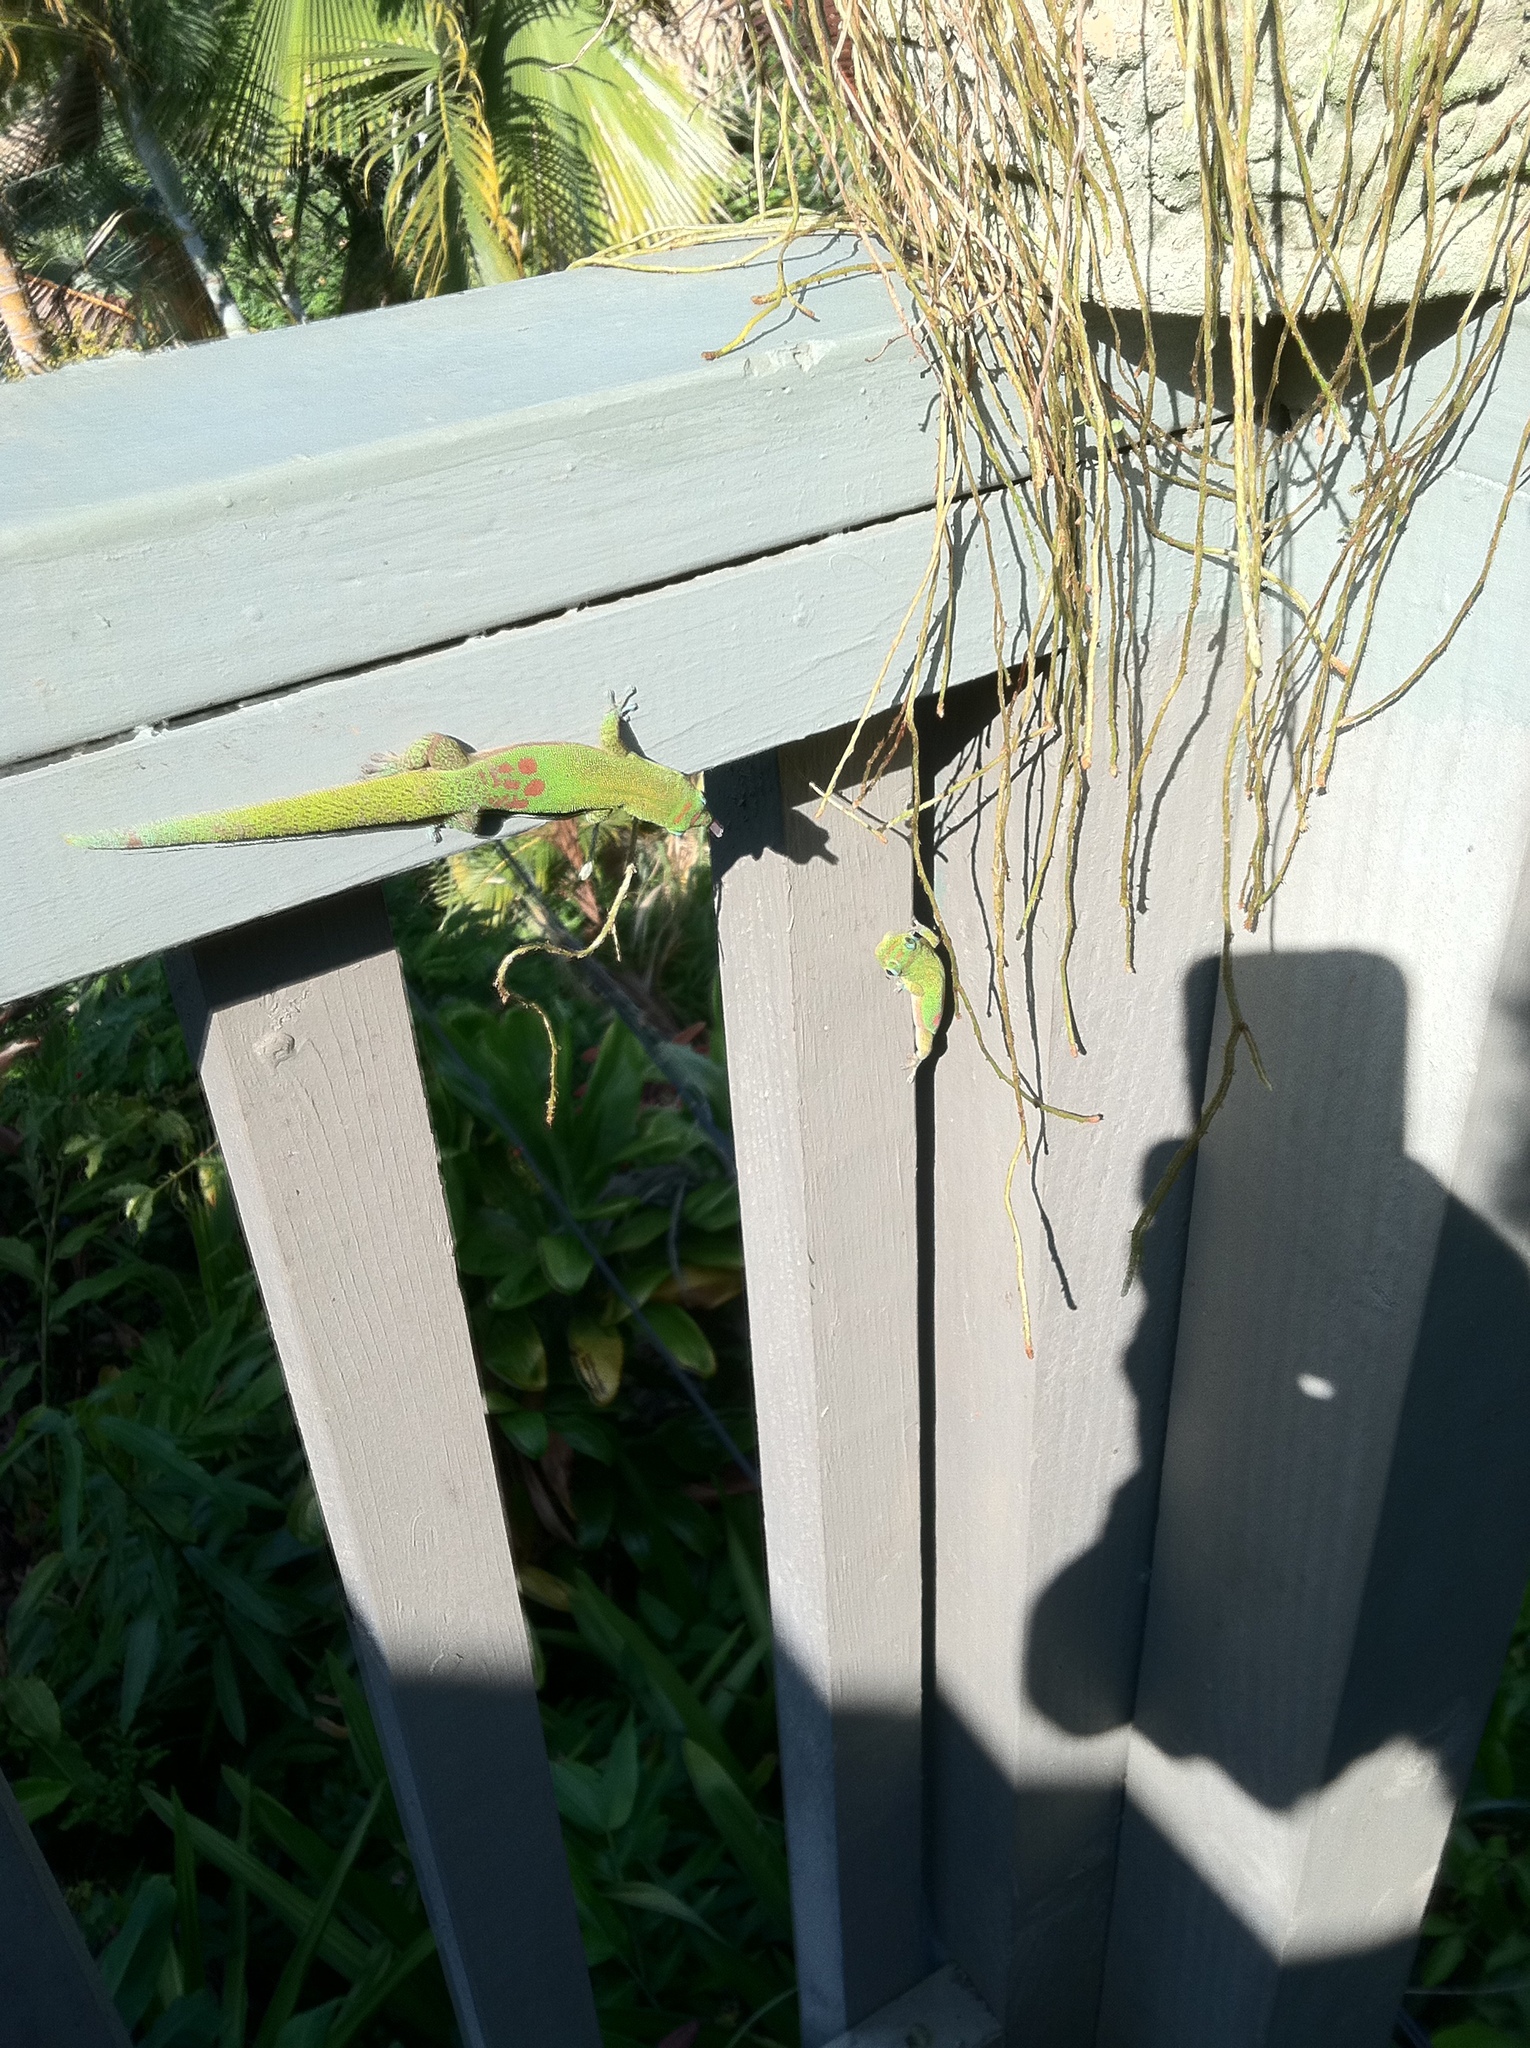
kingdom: Animalia
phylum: Chordata
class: Squamata
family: Gekkonidae
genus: Phelsuma
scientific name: Phelsuma laticauda
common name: Gold dust day gecko
